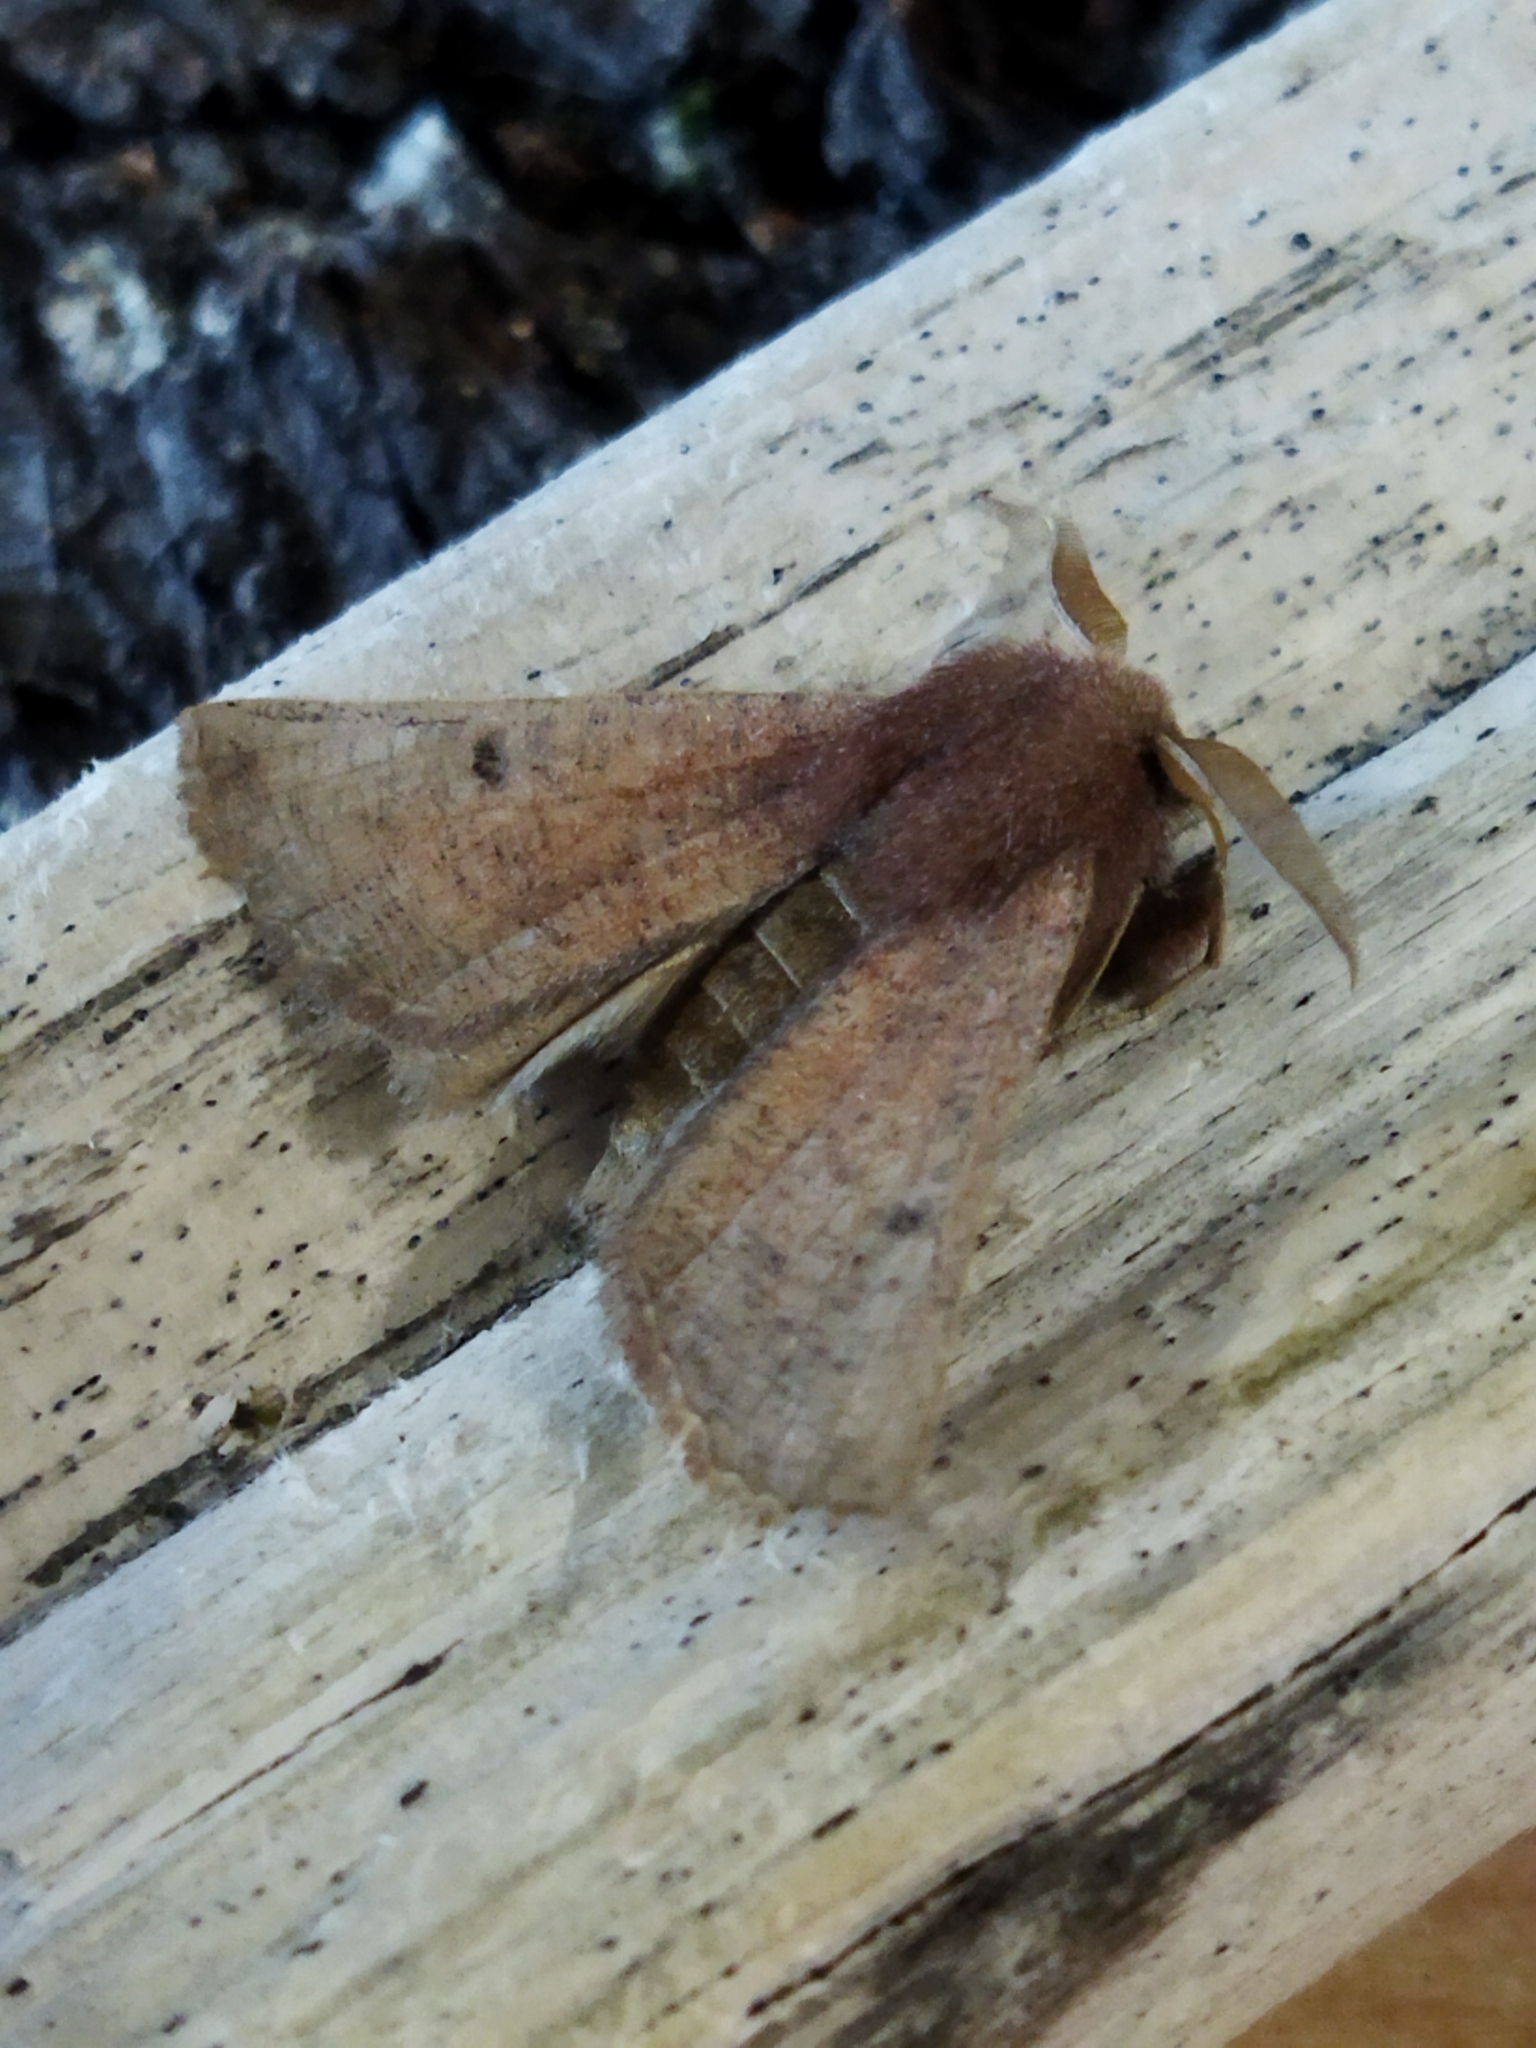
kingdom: Animalia
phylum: Arthropoda
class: Insecta
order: Lepidoptera
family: Geometridae
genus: Dasycorsa
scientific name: Dasycorsa modesta
